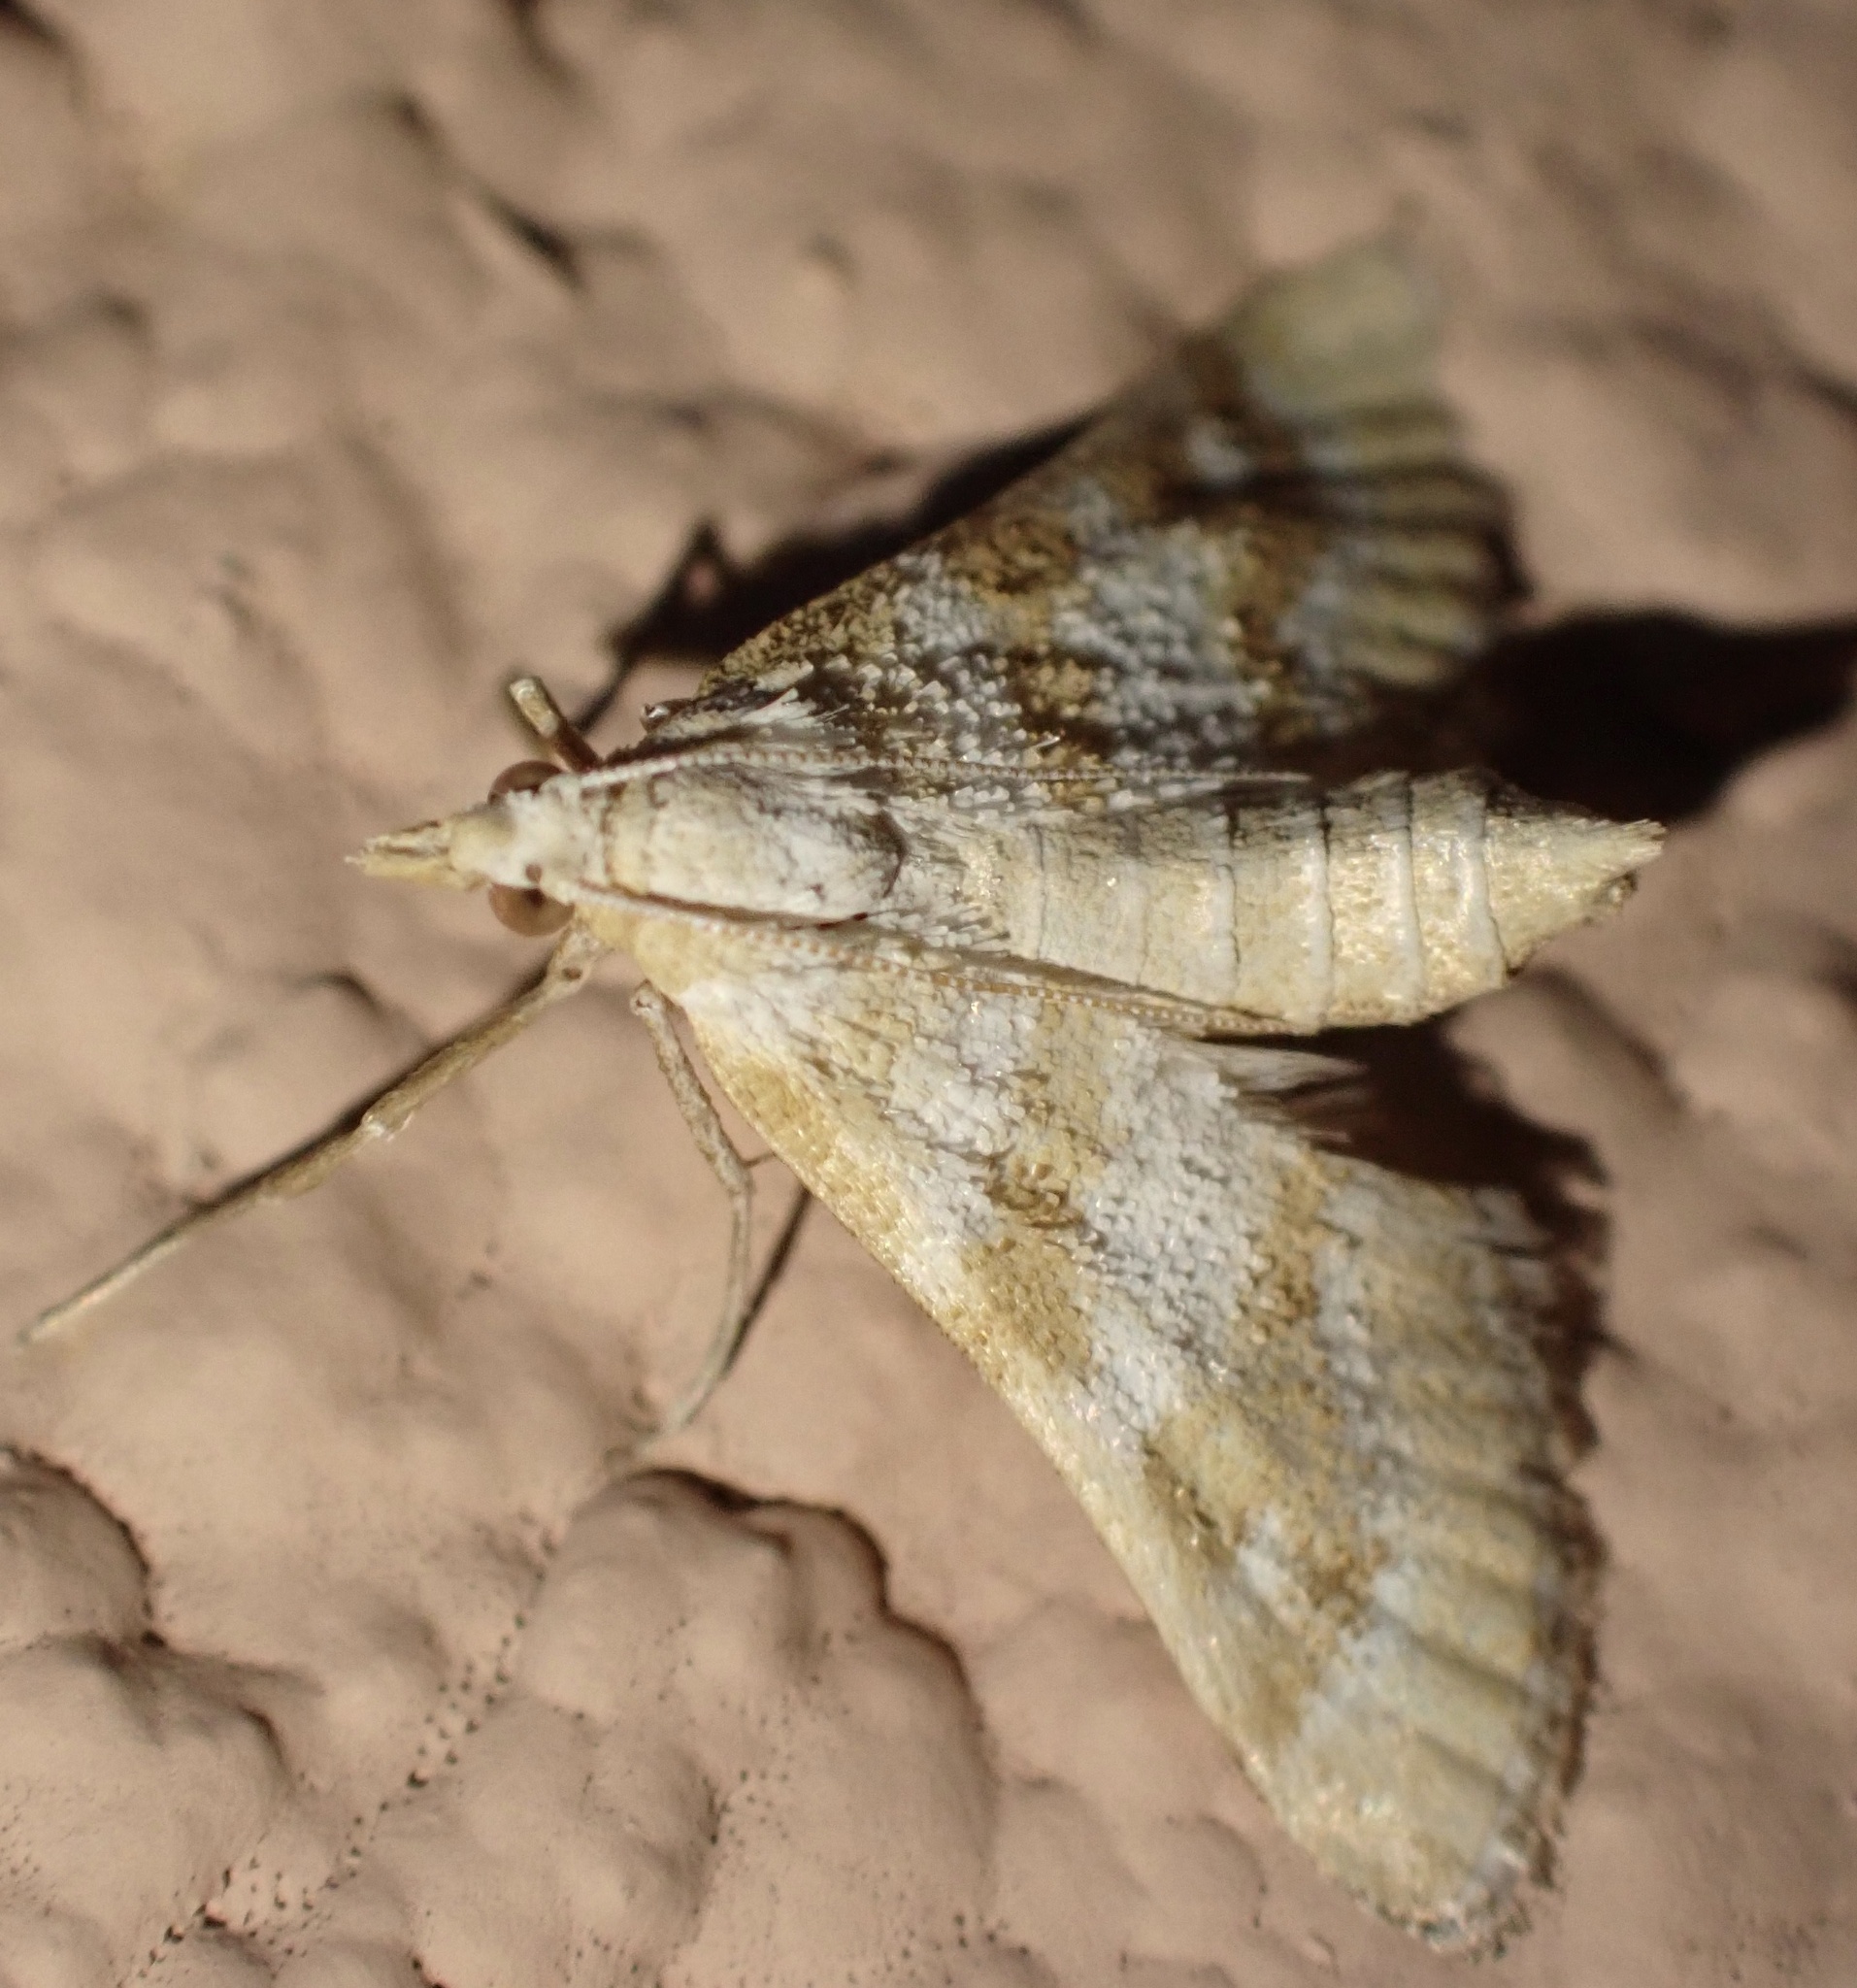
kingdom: Animalia
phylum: Arthropoda
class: Insecta
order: Lepidoptera
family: Crambidae
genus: Metasia
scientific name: Metasia suppandalis
